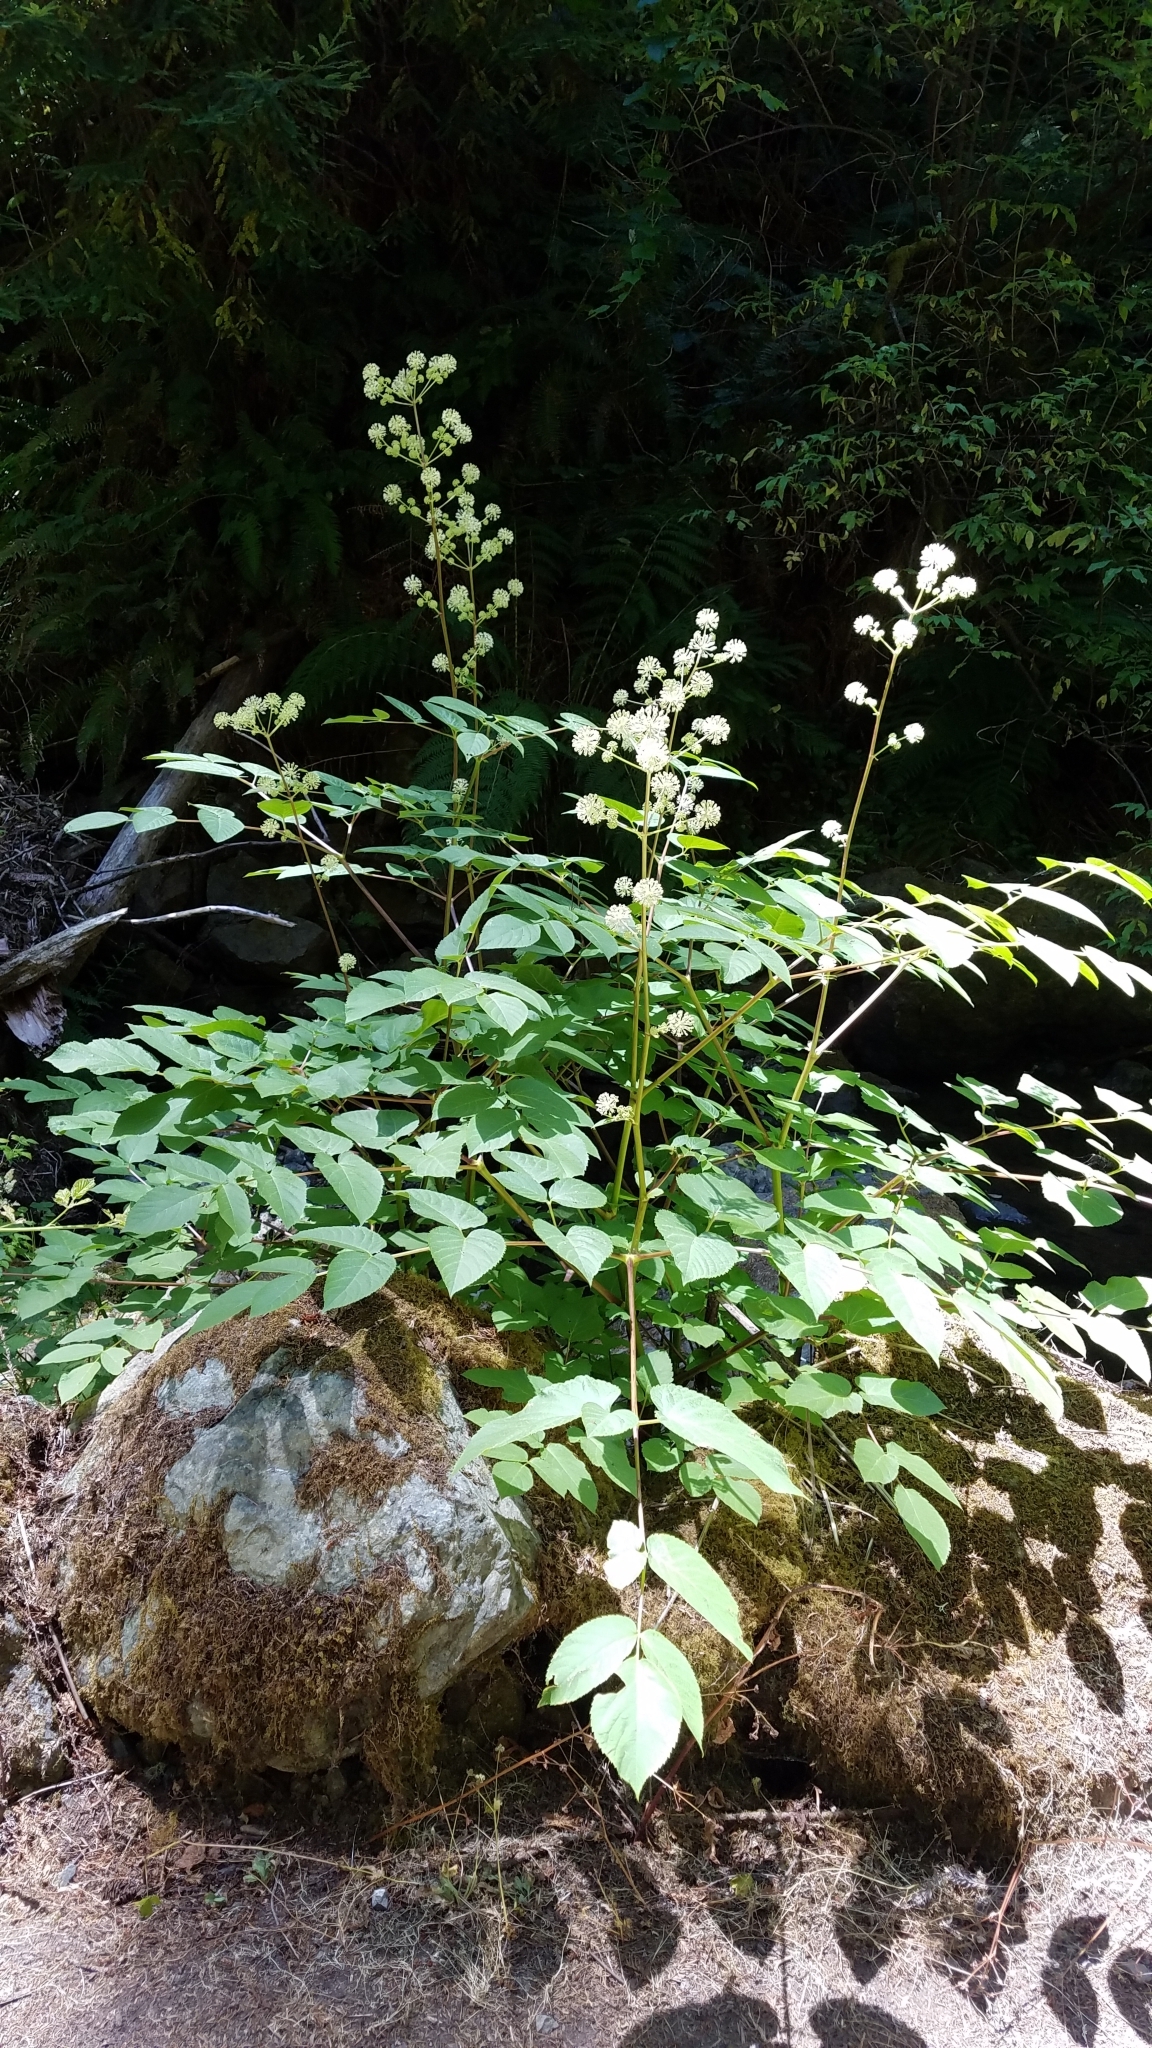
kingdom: Plantae
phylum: Tracheophyta
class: Magnoliopsida
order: Apiales
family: Araliaceae
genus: Aralia
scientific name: Aralia californica
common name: California-ginseng
